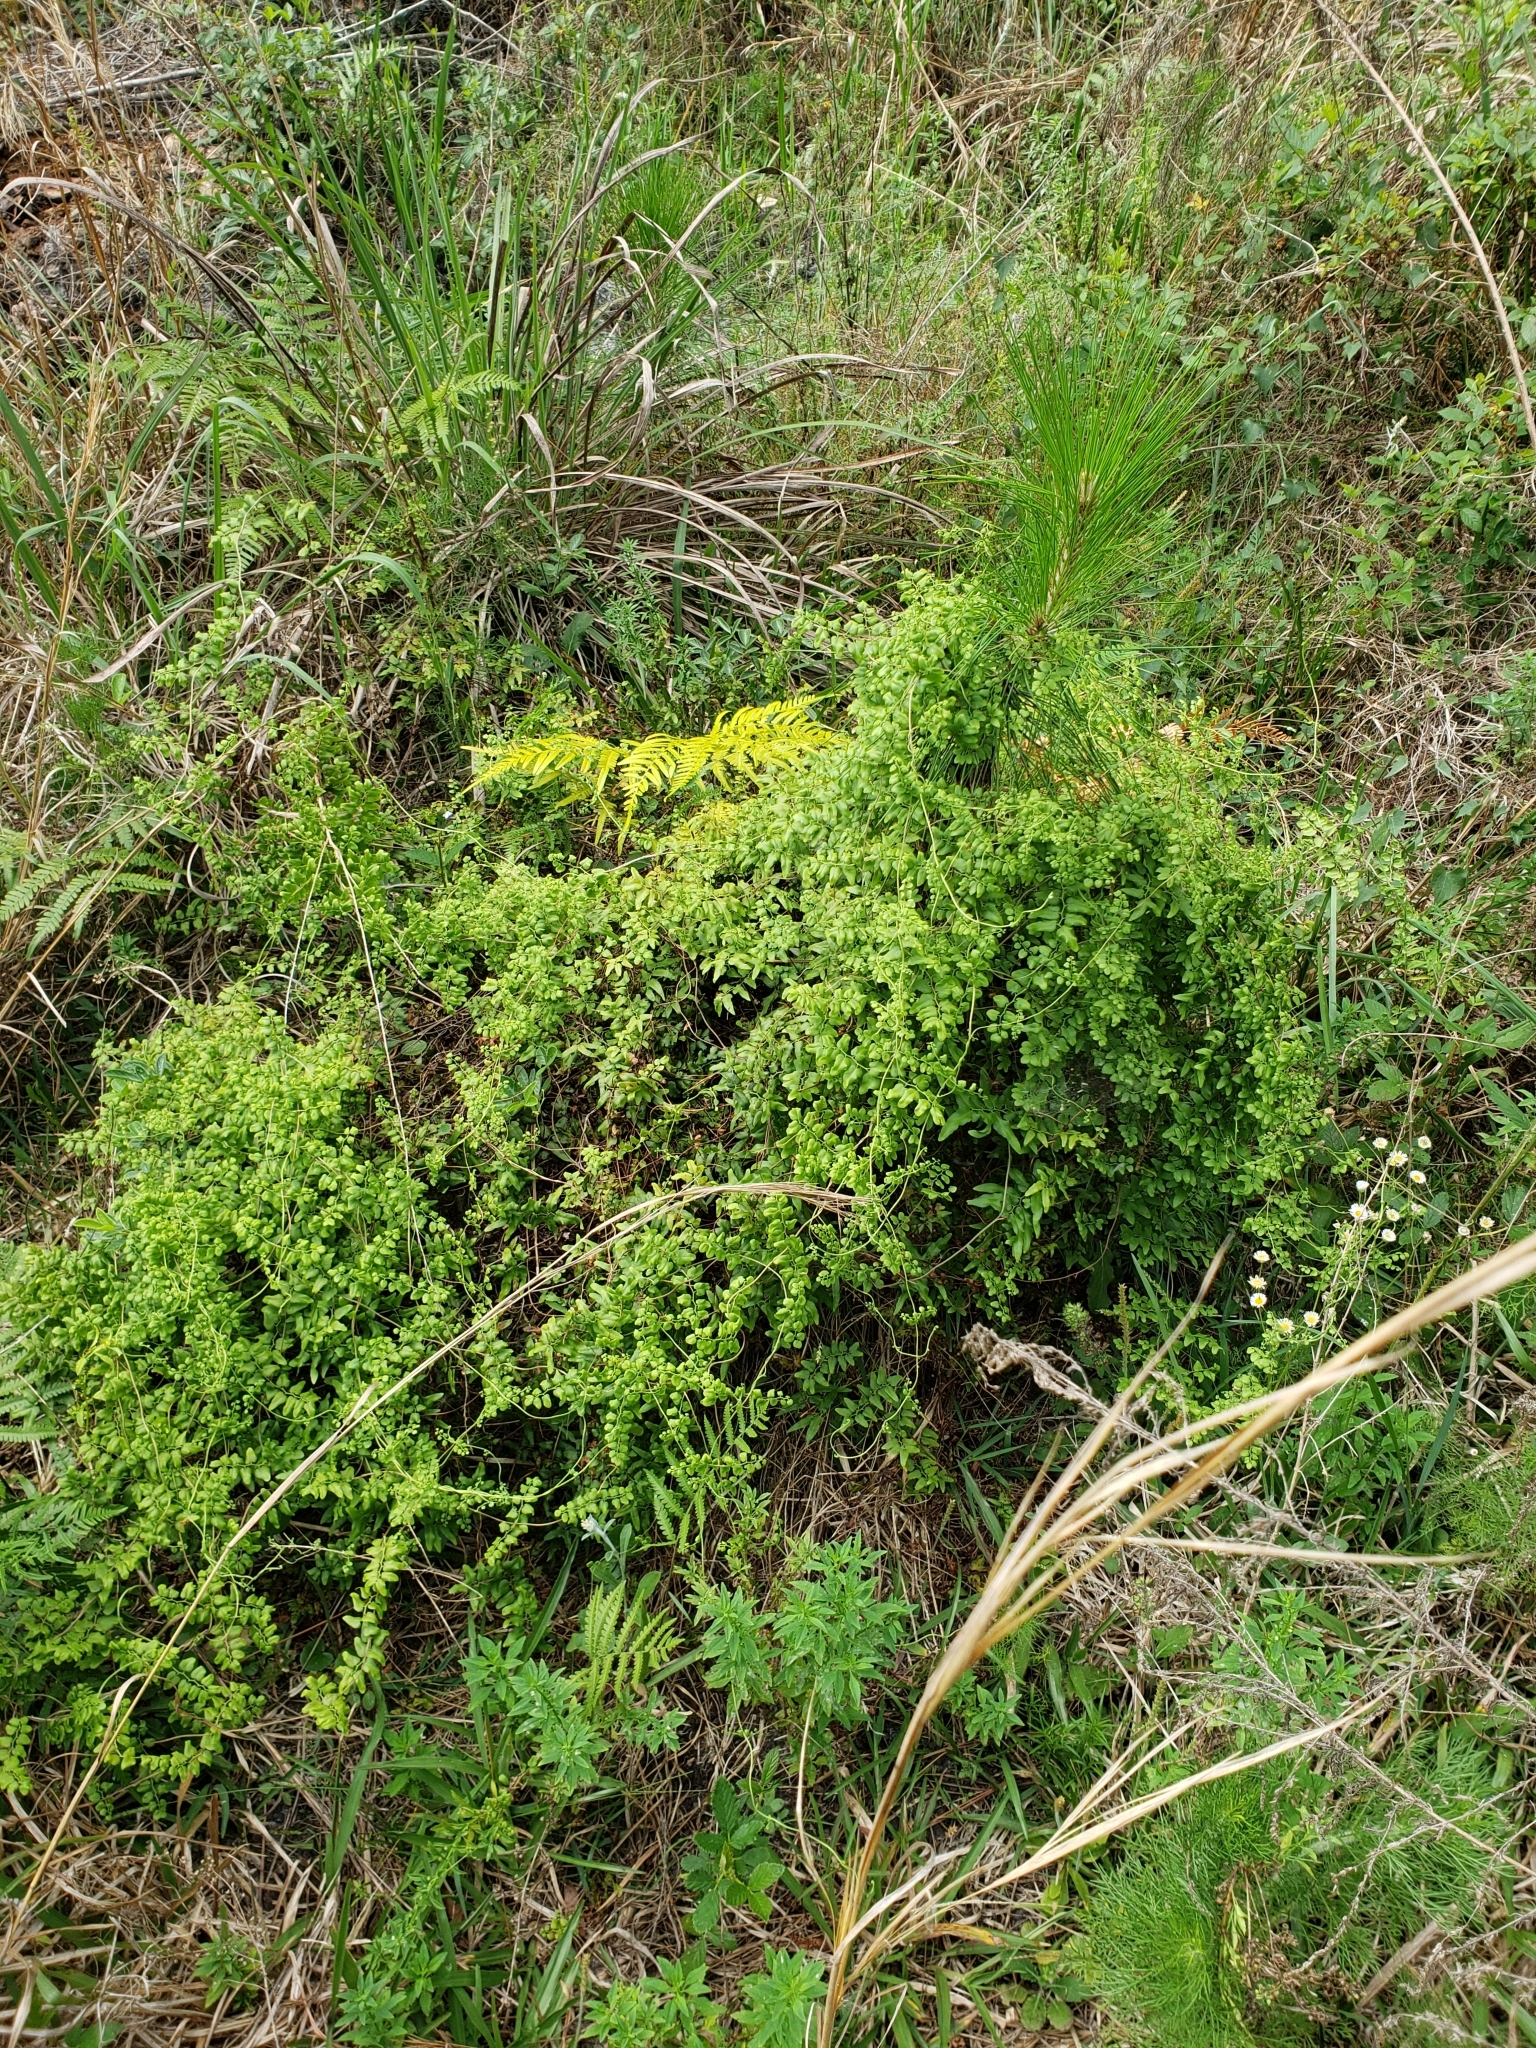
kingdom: Plantae
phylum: Tracheophyta
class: Polypodiopsida
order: Schizaeales
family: Lygodiaceae
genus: Lygodium
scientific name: Lygodium microphyllum
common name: Small-leaf climbing fern
